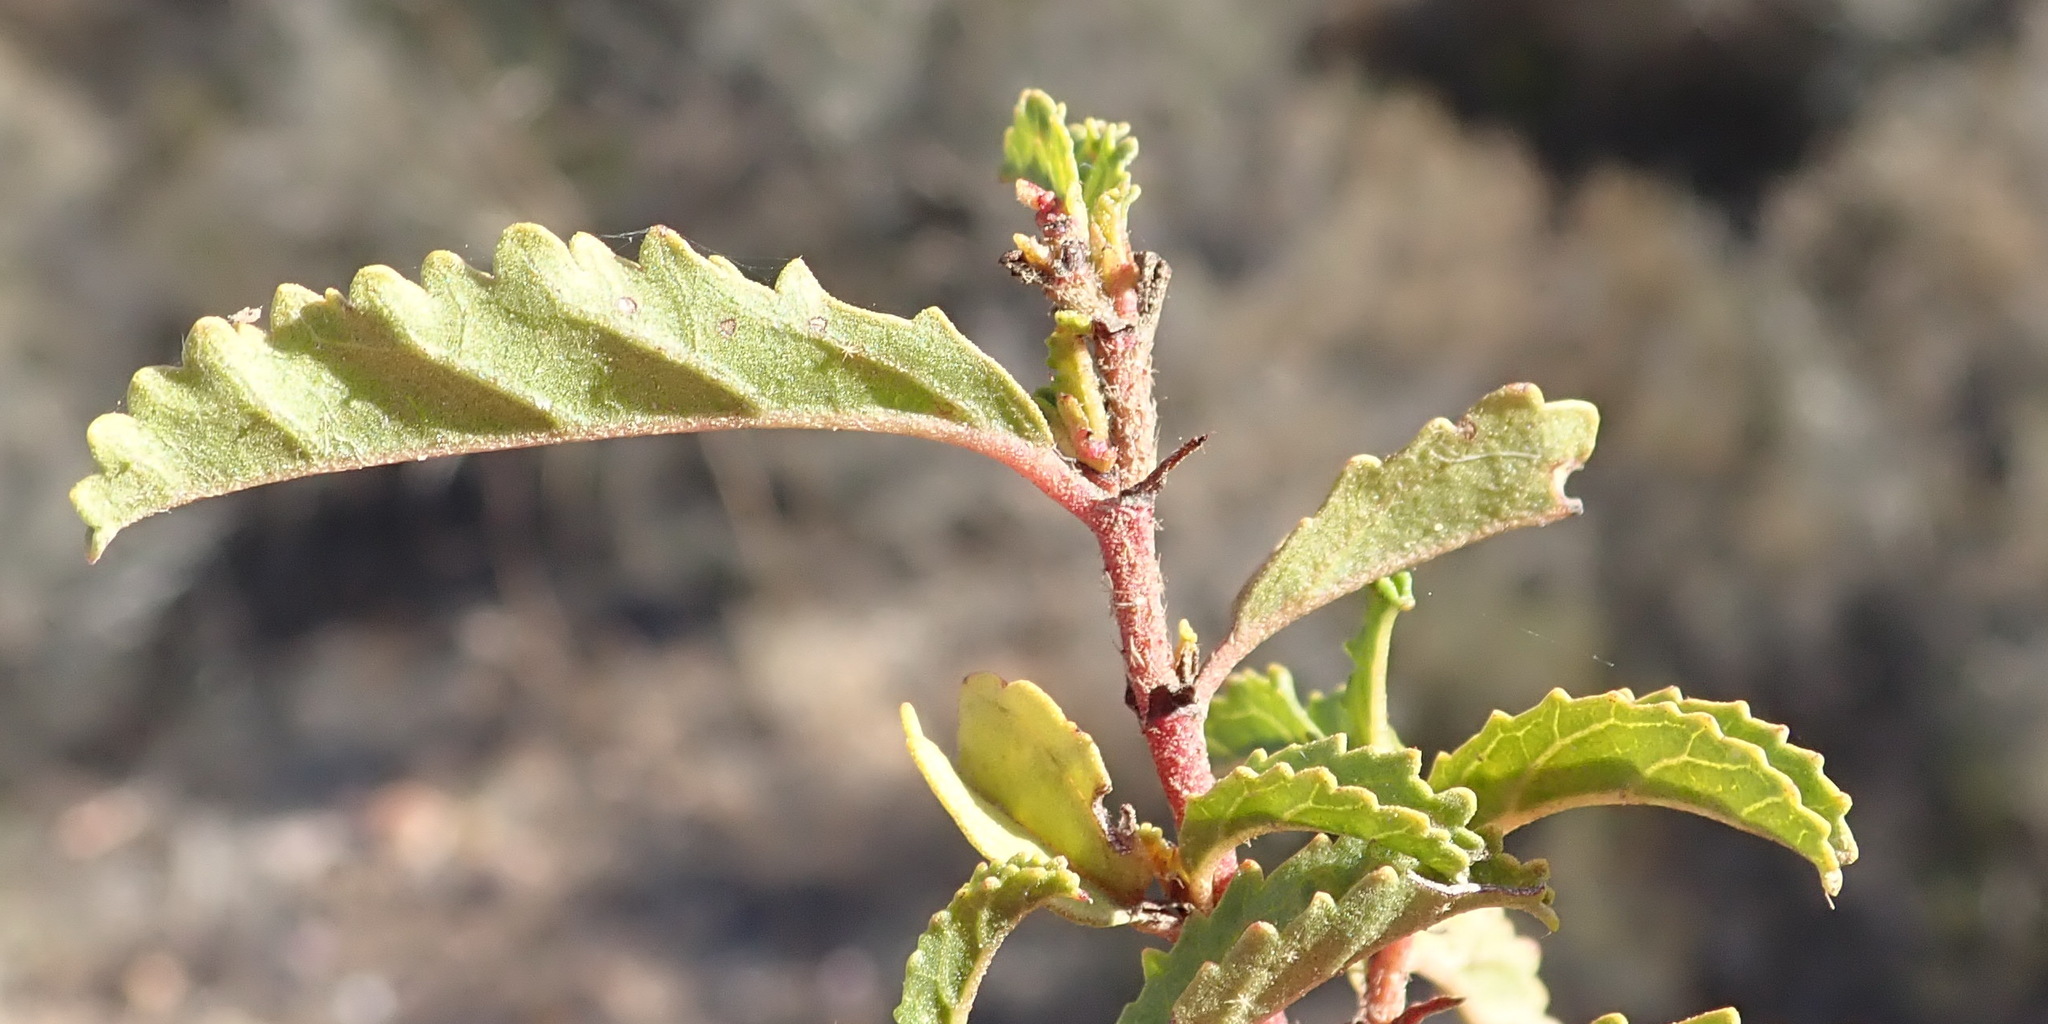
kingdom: Plantae
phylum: Tracheophyta
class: Magnoliopsida
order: Malvales
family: Malvaceae
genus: Hermannia
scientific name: Hermannia saccifera
